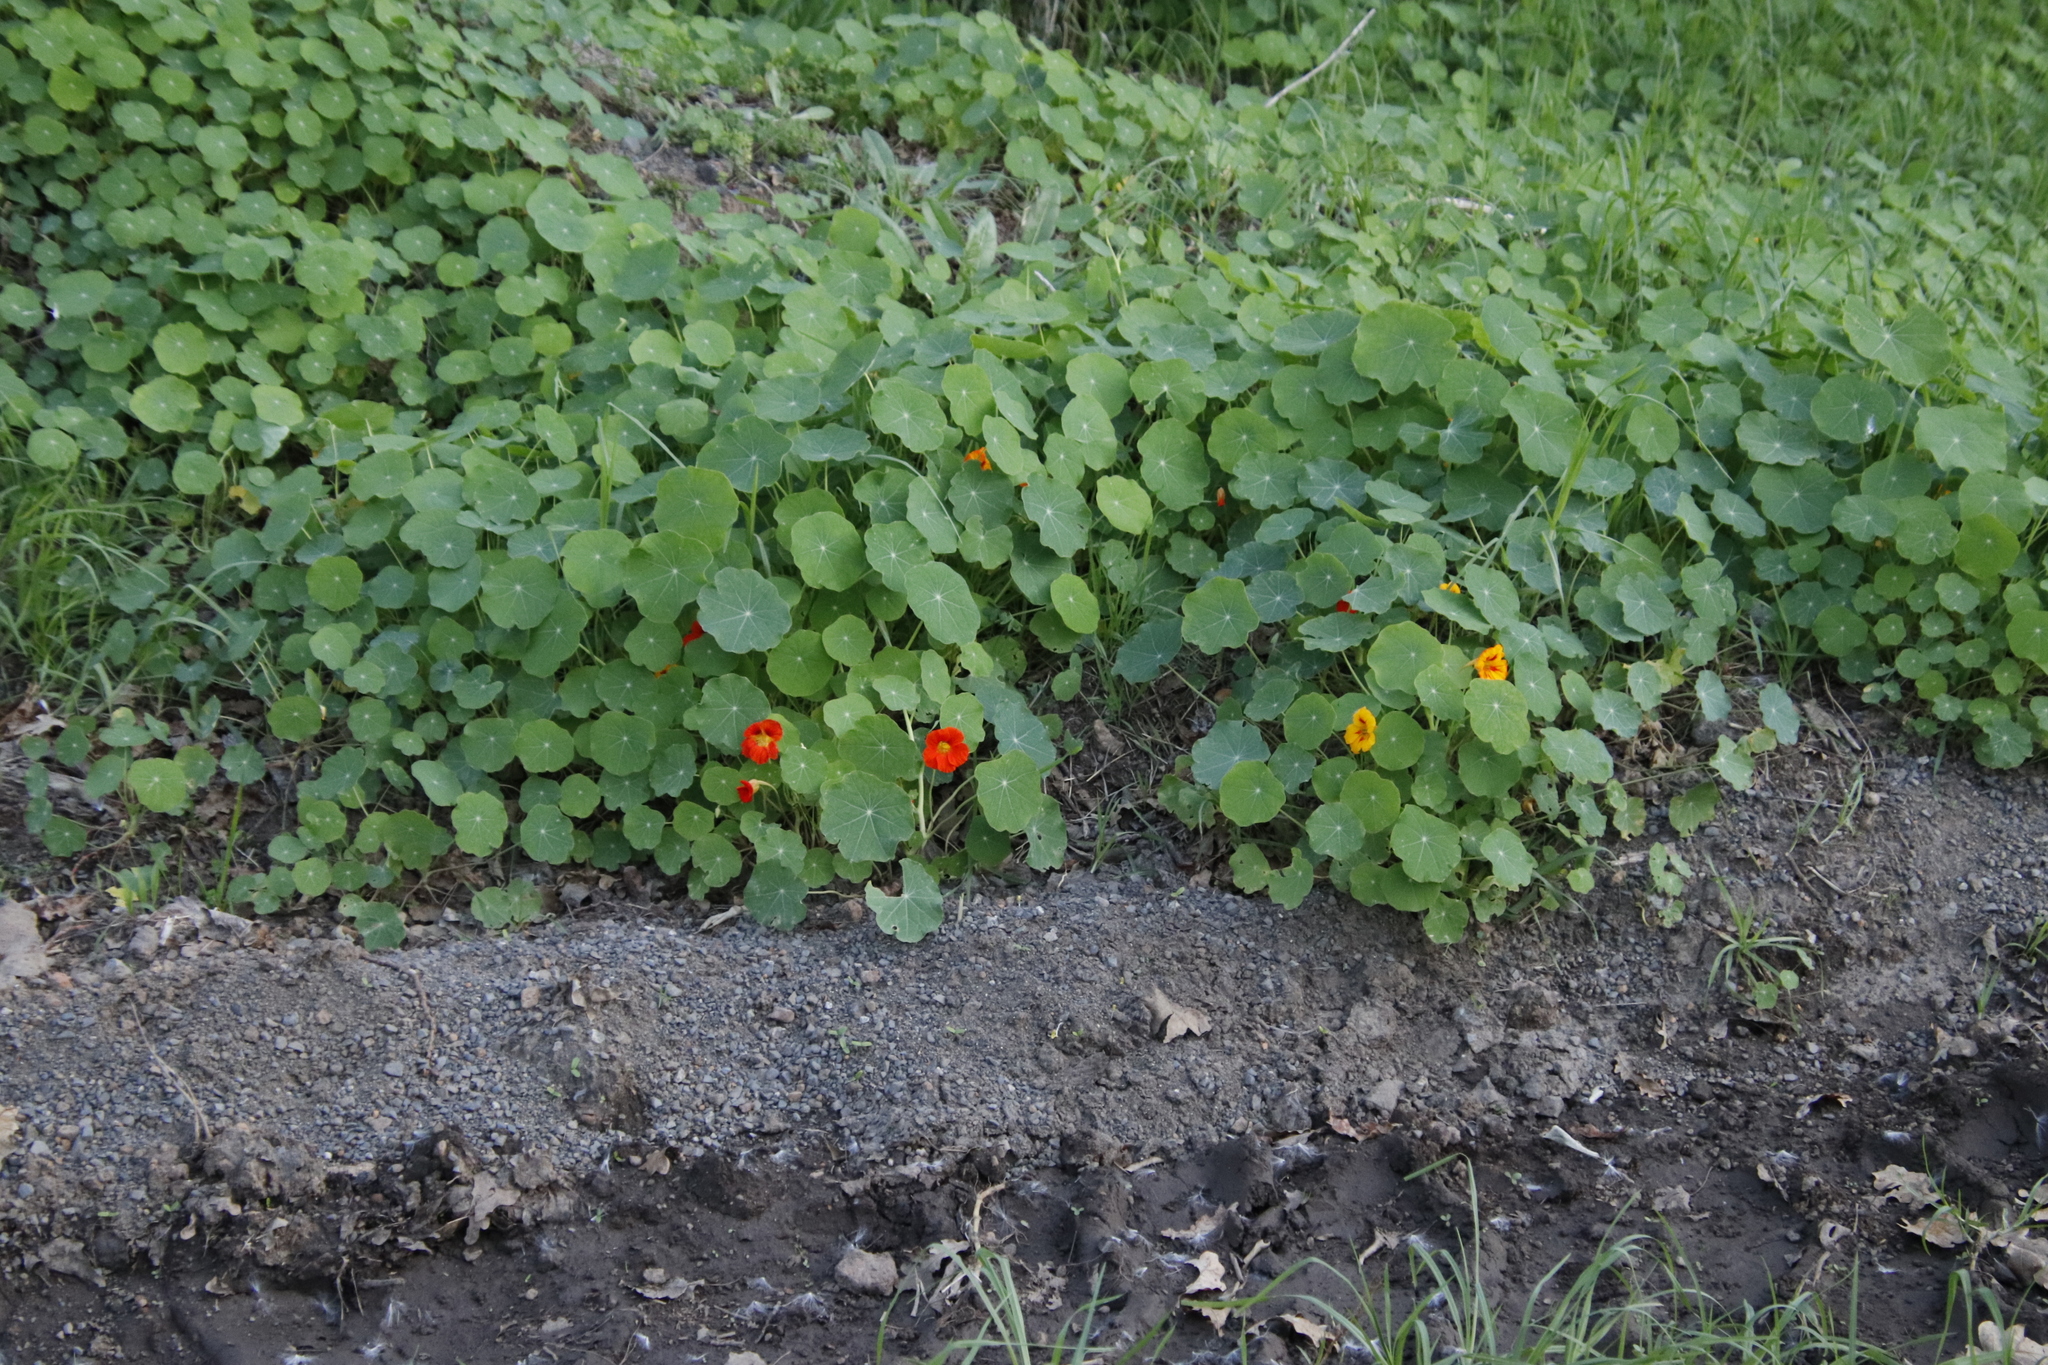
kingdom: Plantae
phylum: Tracheophyta
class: Magnoliopsida
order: Brassicales
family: Tropaeolaceae
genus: Tropaeolum
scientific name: Tropaeolum majus
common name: Nasturtium
